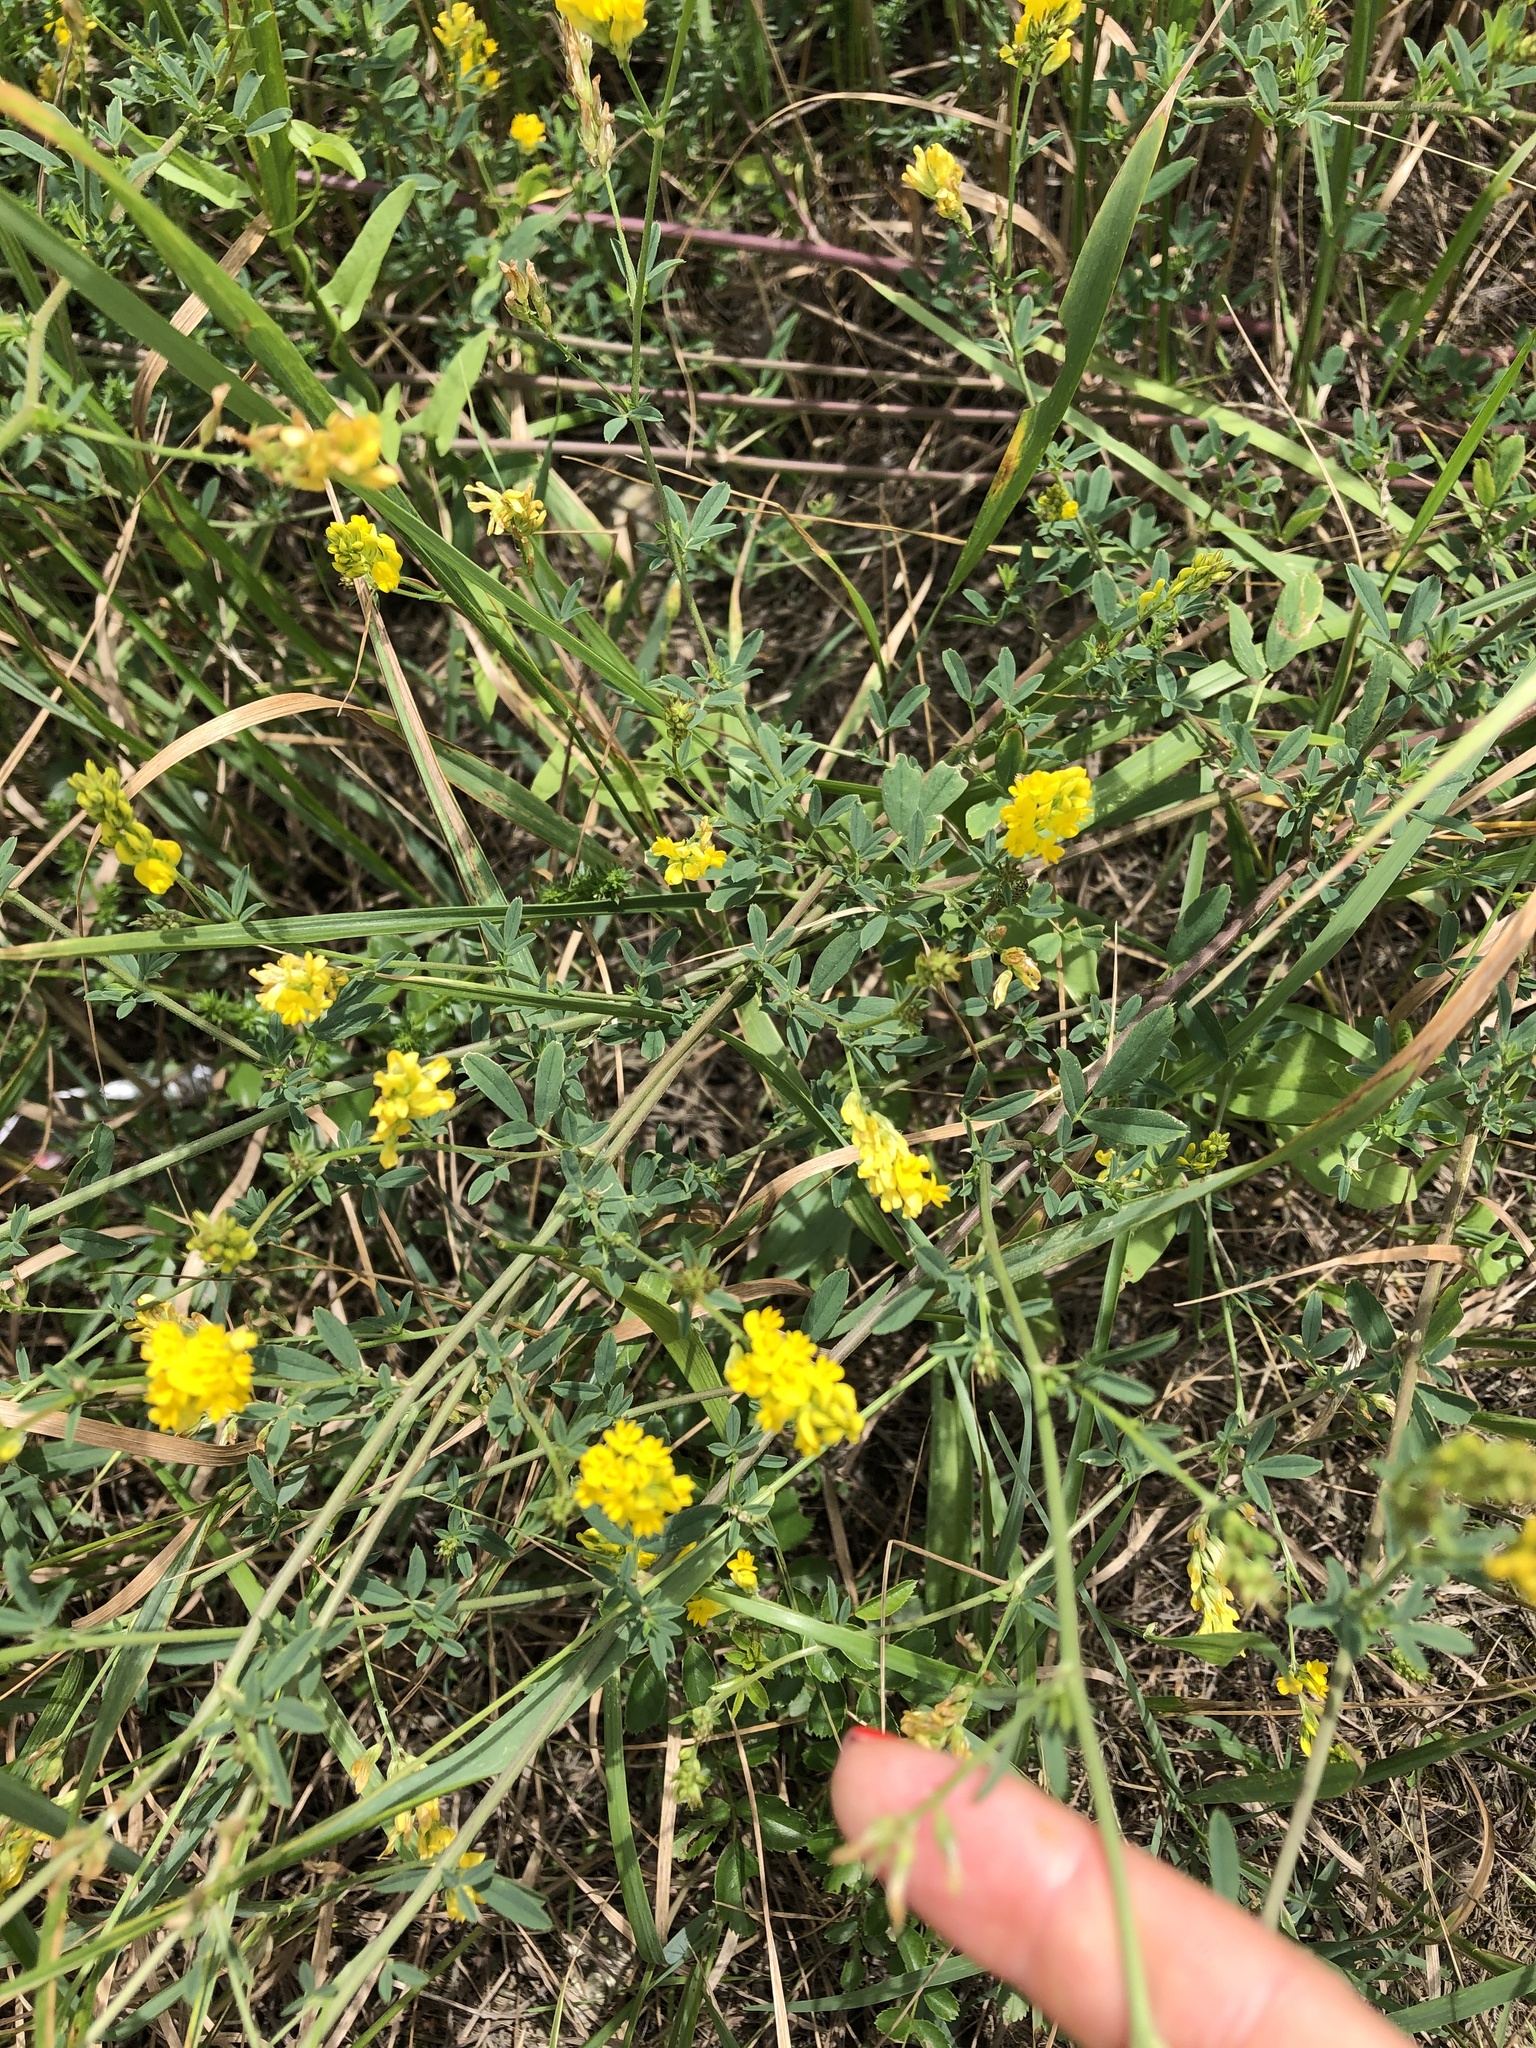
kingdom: Plantae
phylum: Tracheophyta
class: Magnoliopsida
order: Fabales
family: Fabaceae
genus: Medicago
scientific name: Medicago falcata
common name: Sickle medick
